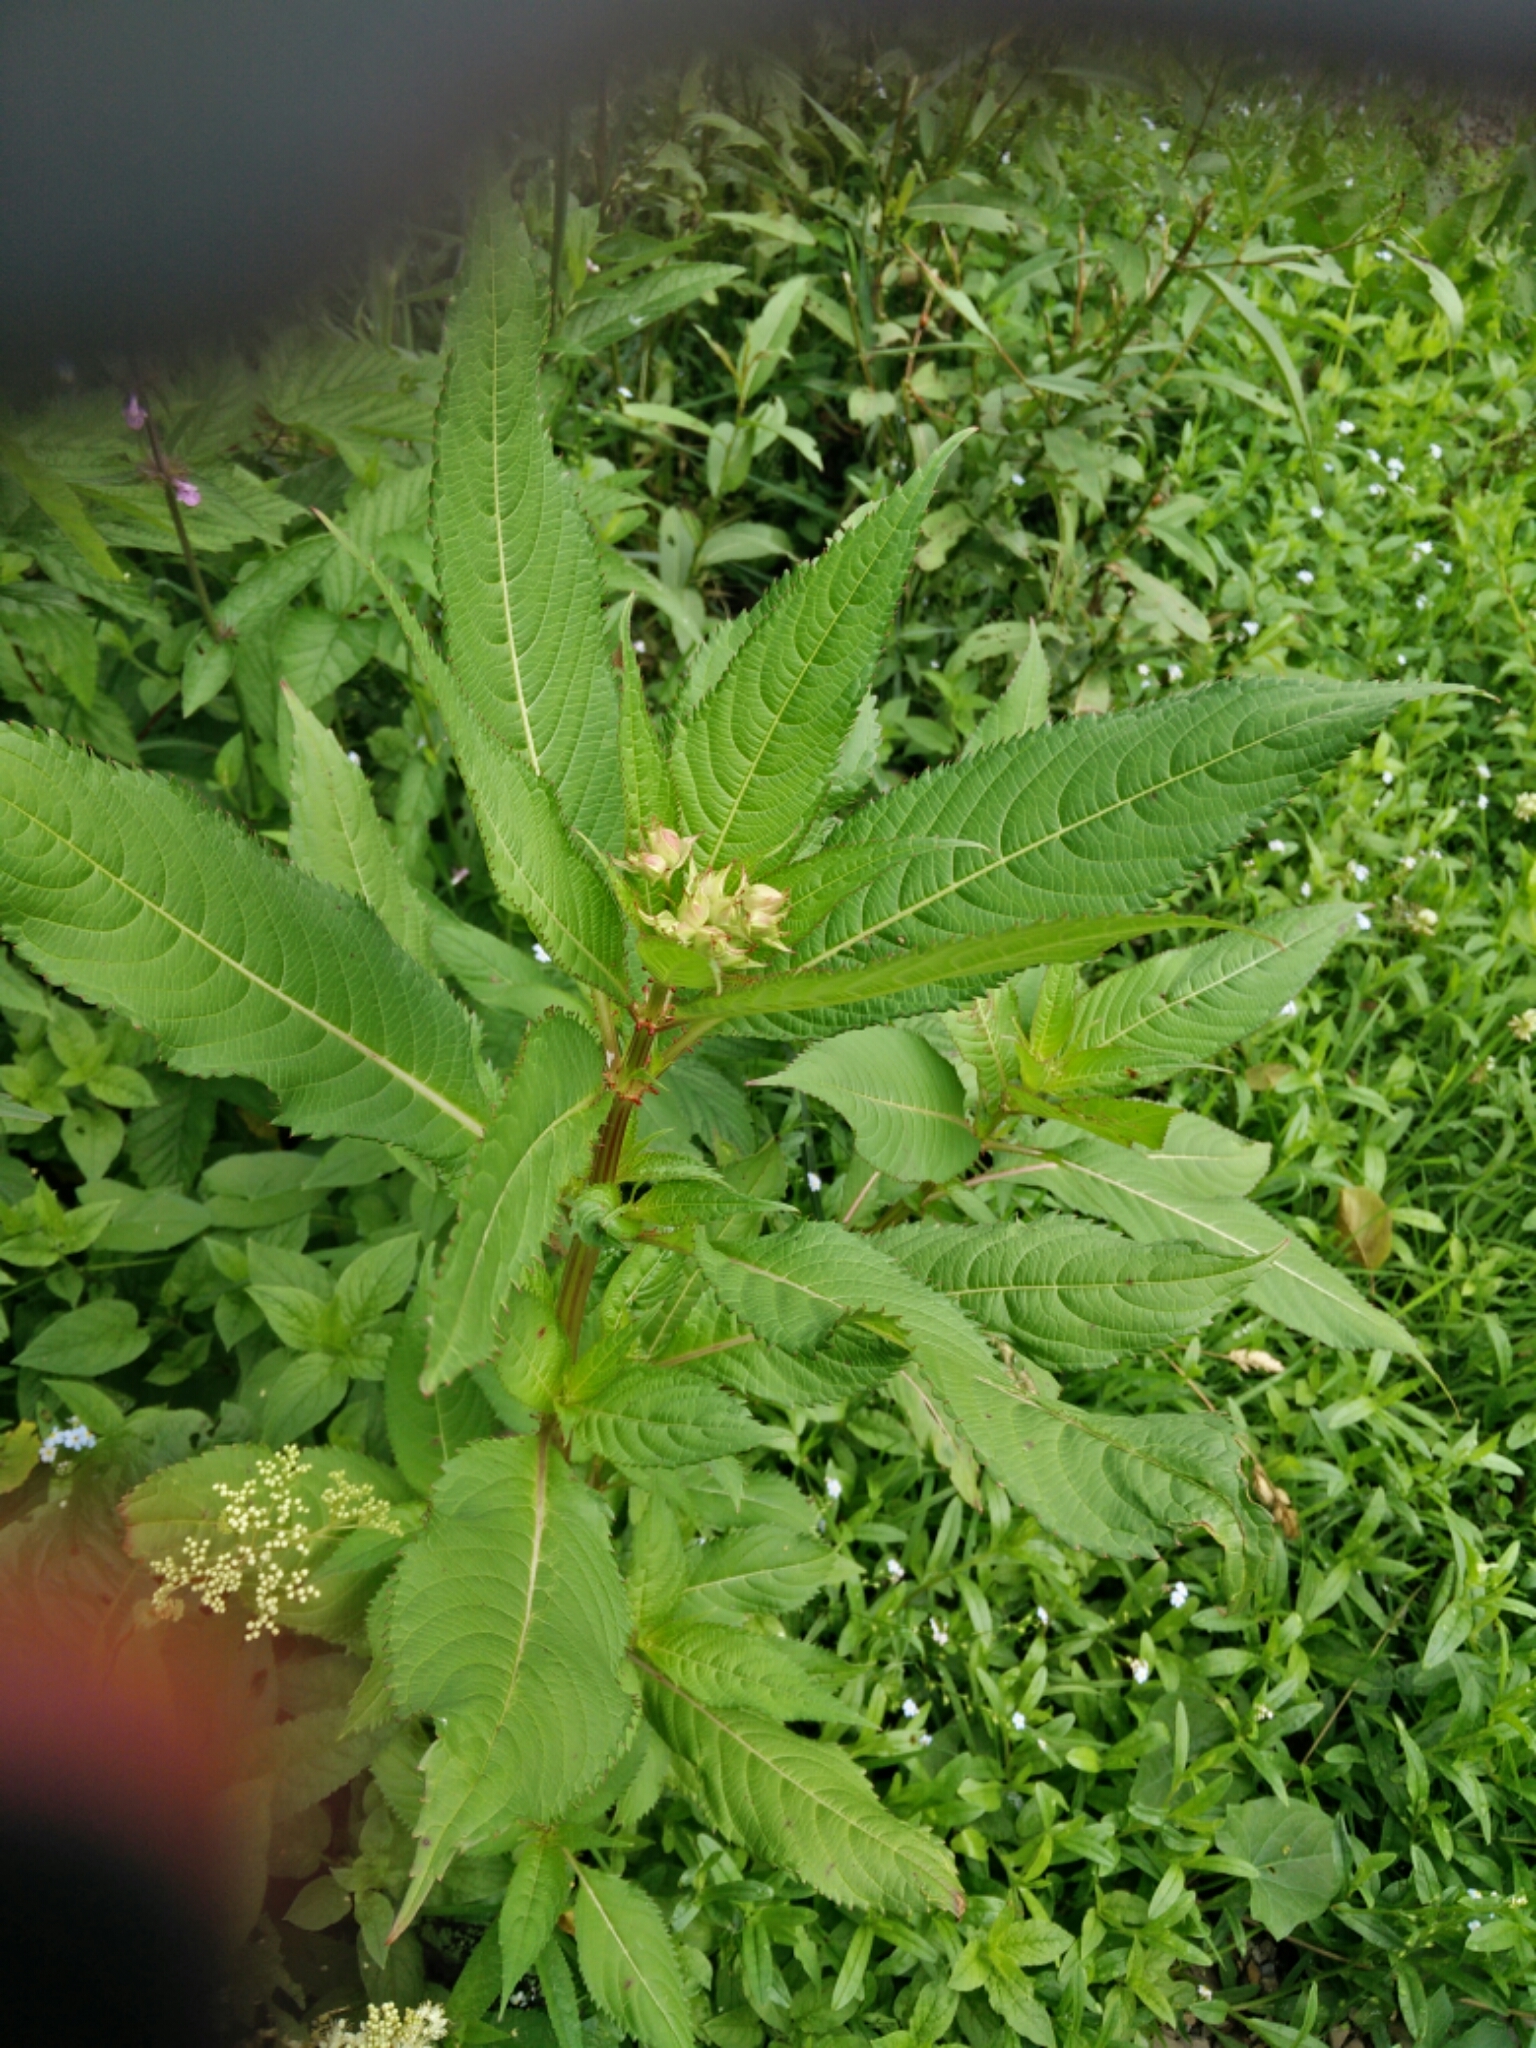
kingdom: Plantae
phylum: Tracheophyta
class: Magnoliopsida
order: Ericales
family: Balsaminaceae
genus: Impatiens
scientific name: Impatiens glandulifera
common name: Himalayan balsam
